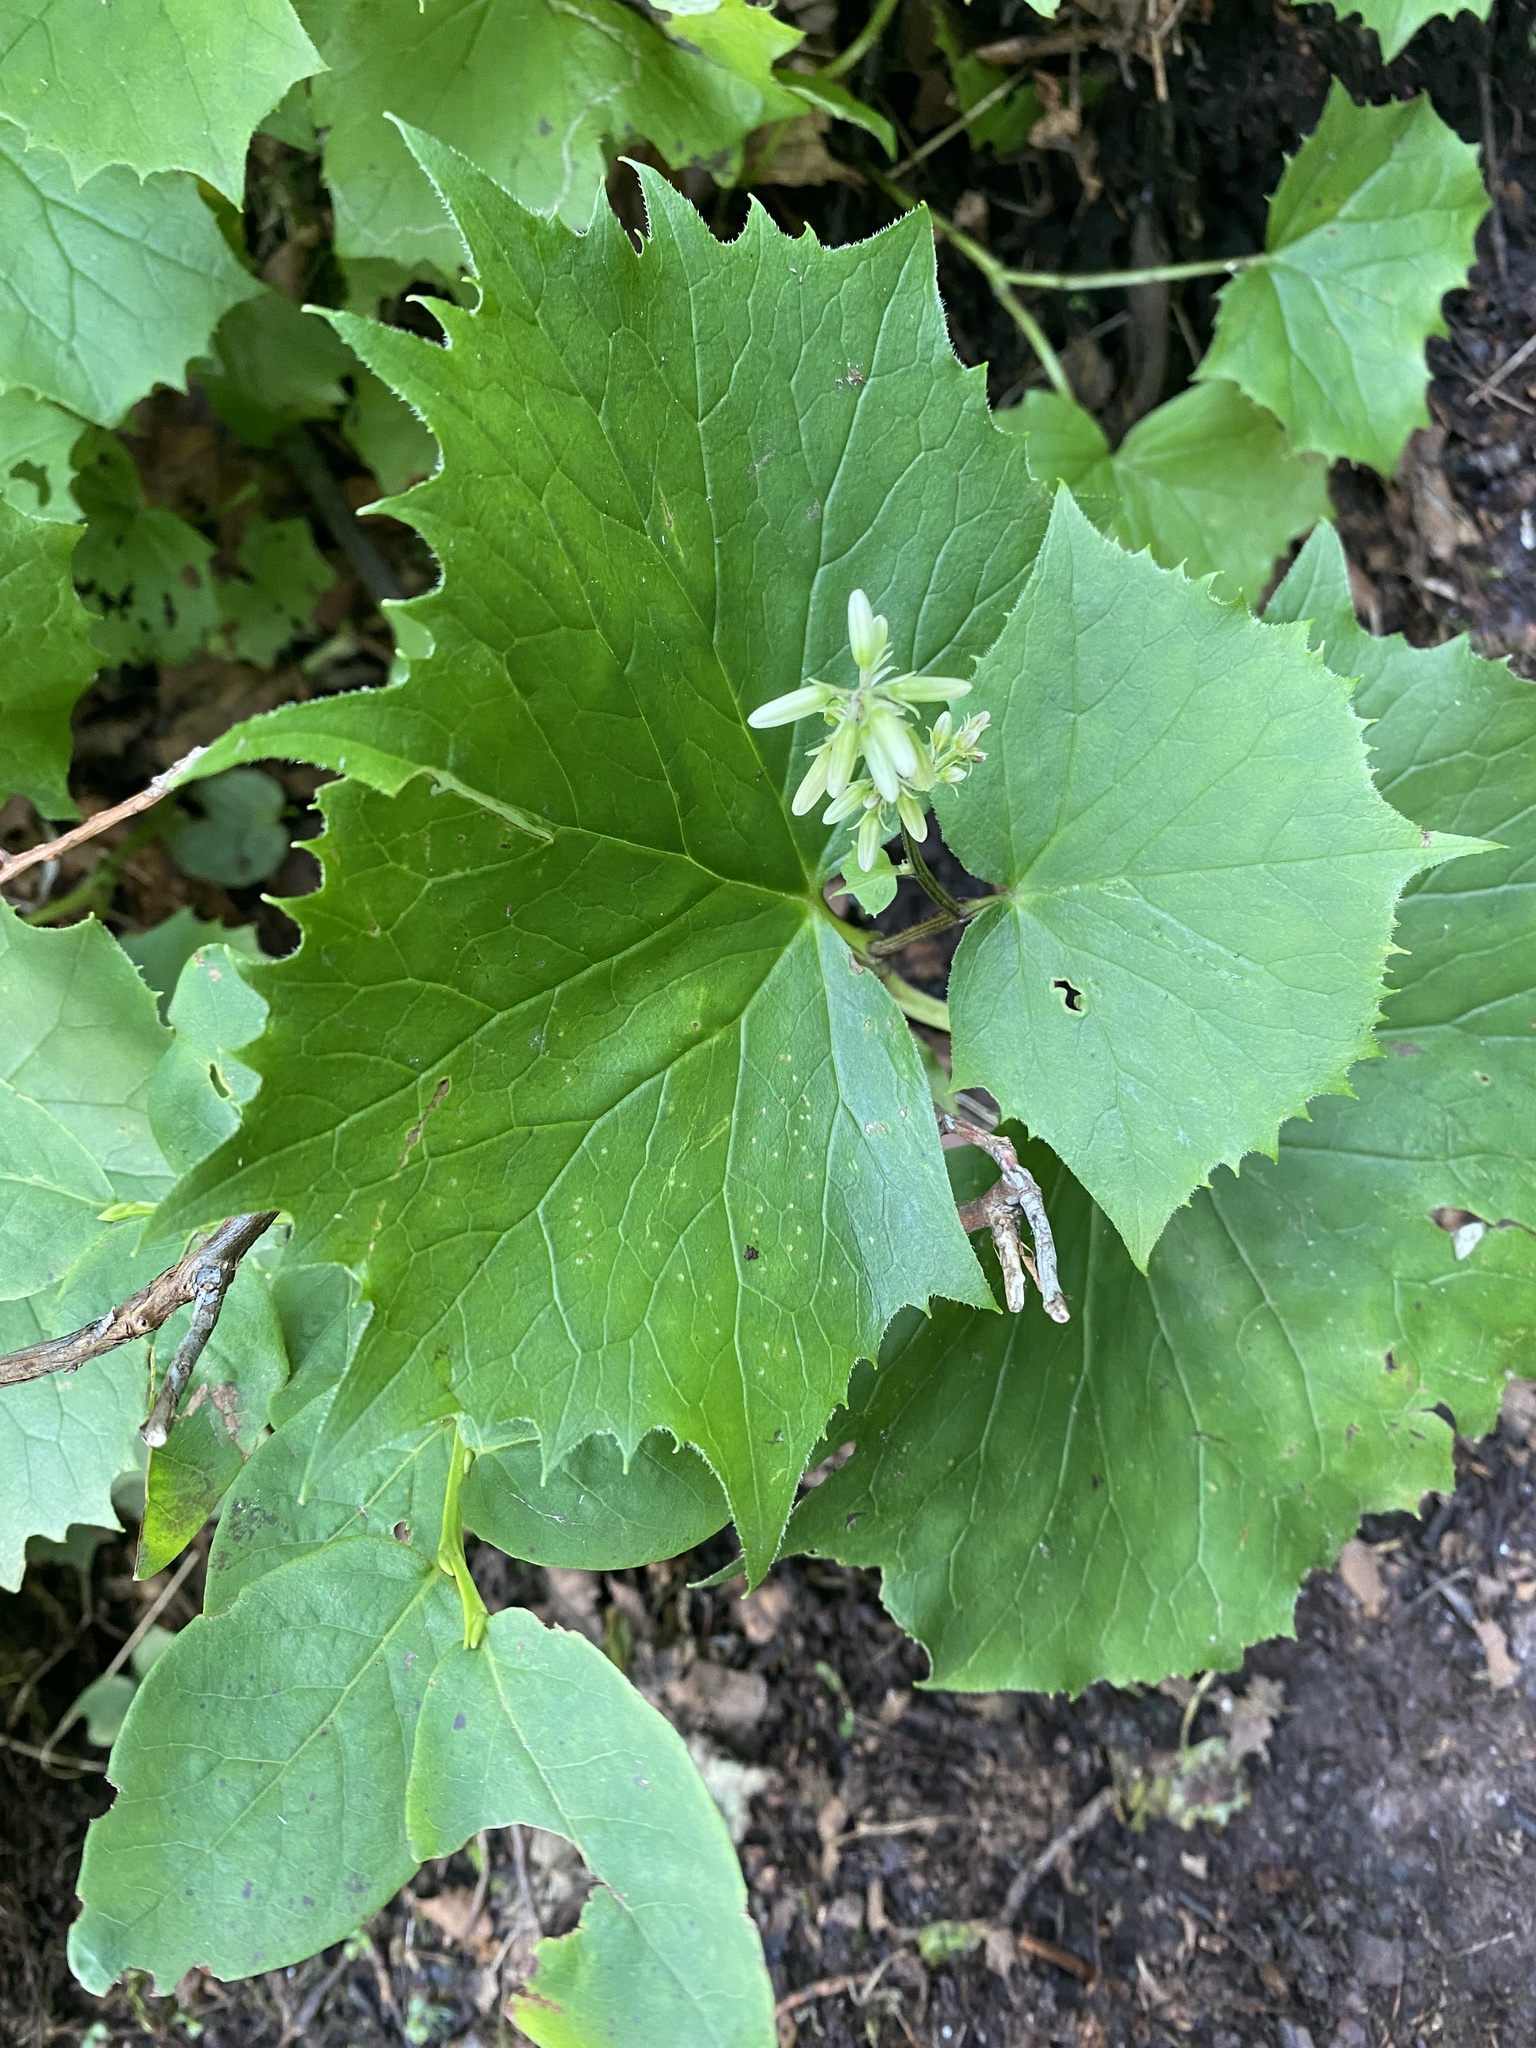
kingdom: Plantae
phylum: Tracheophyta
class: Magnoliopsida
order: Asterales
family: Asteraceae
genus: Parasenecio
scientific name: Parasenecio kamtschaticus
